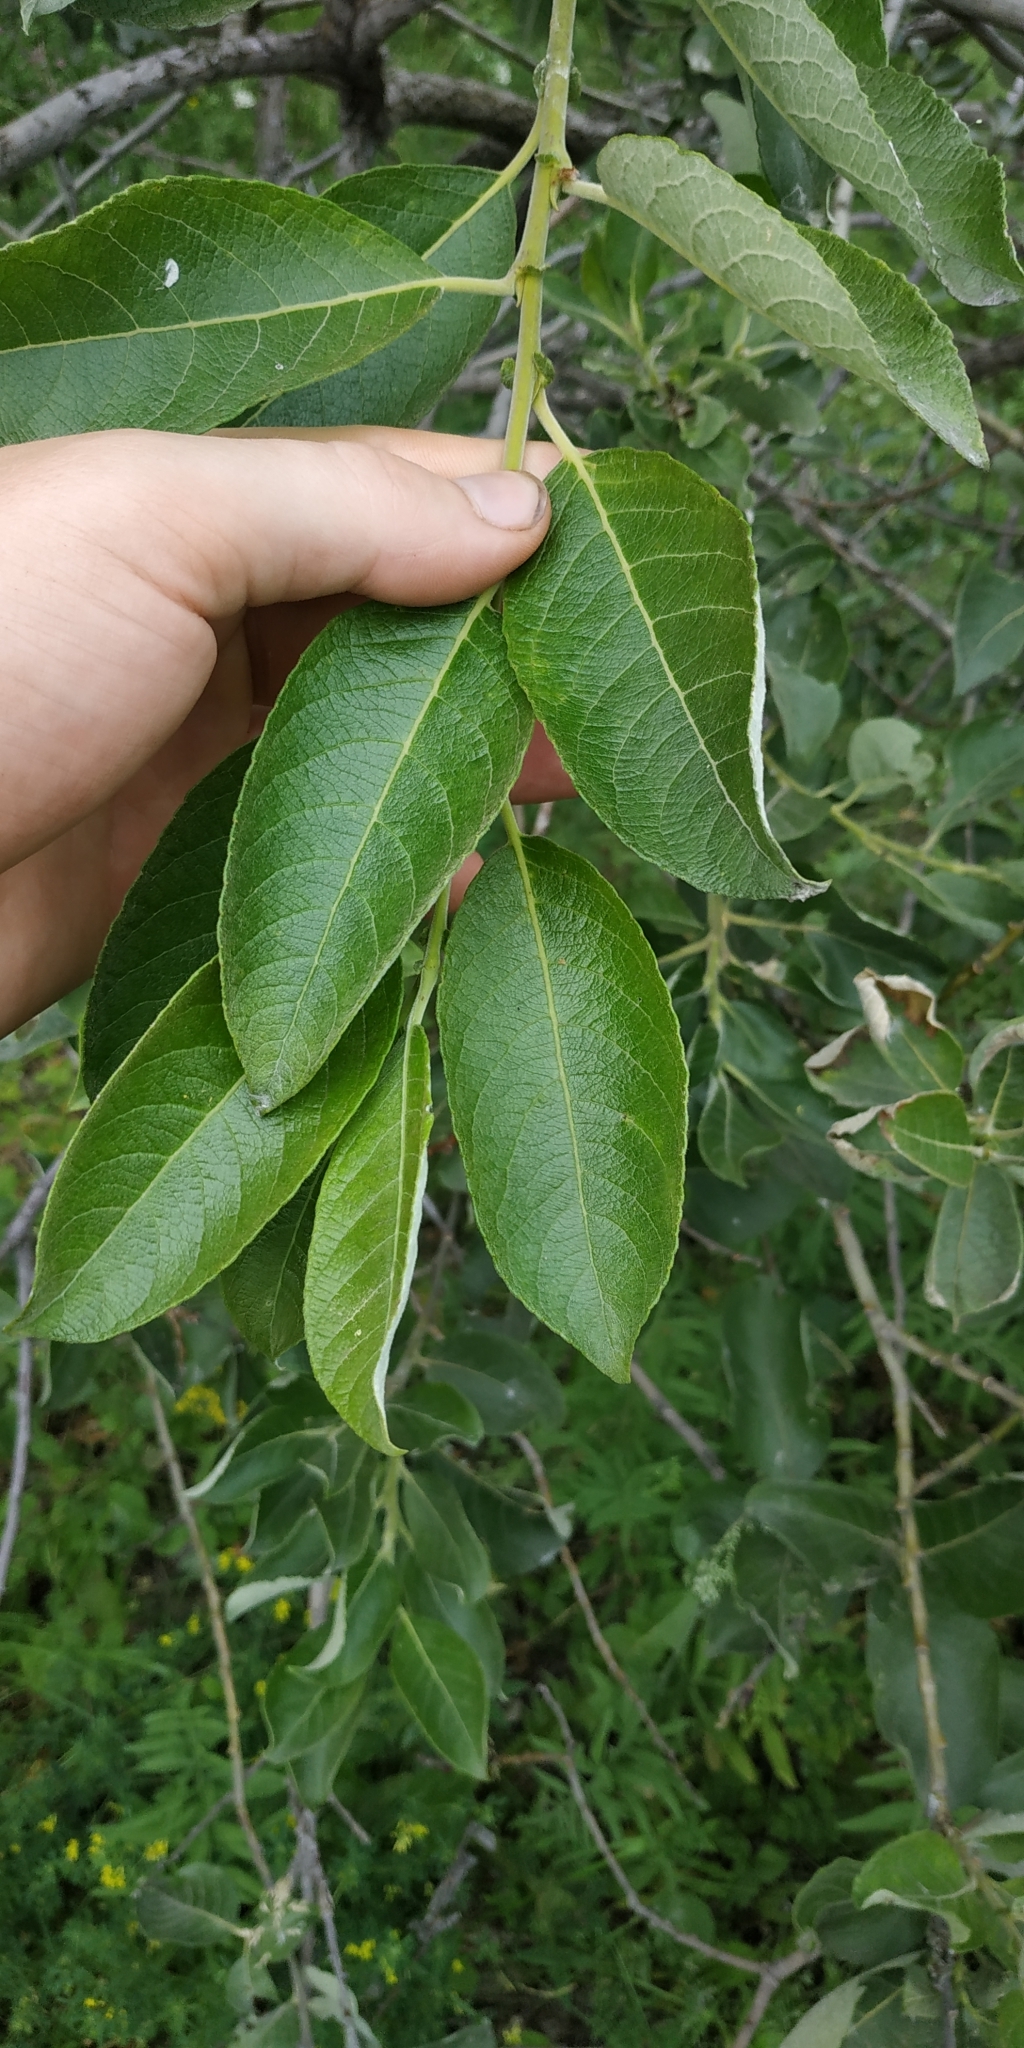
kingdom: Plantae
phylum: Tracheophyta
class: Magnoliopsida
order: Malpighiales
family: Salicaceae
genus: Salix
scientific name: Salix caprea
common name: Goat willow
